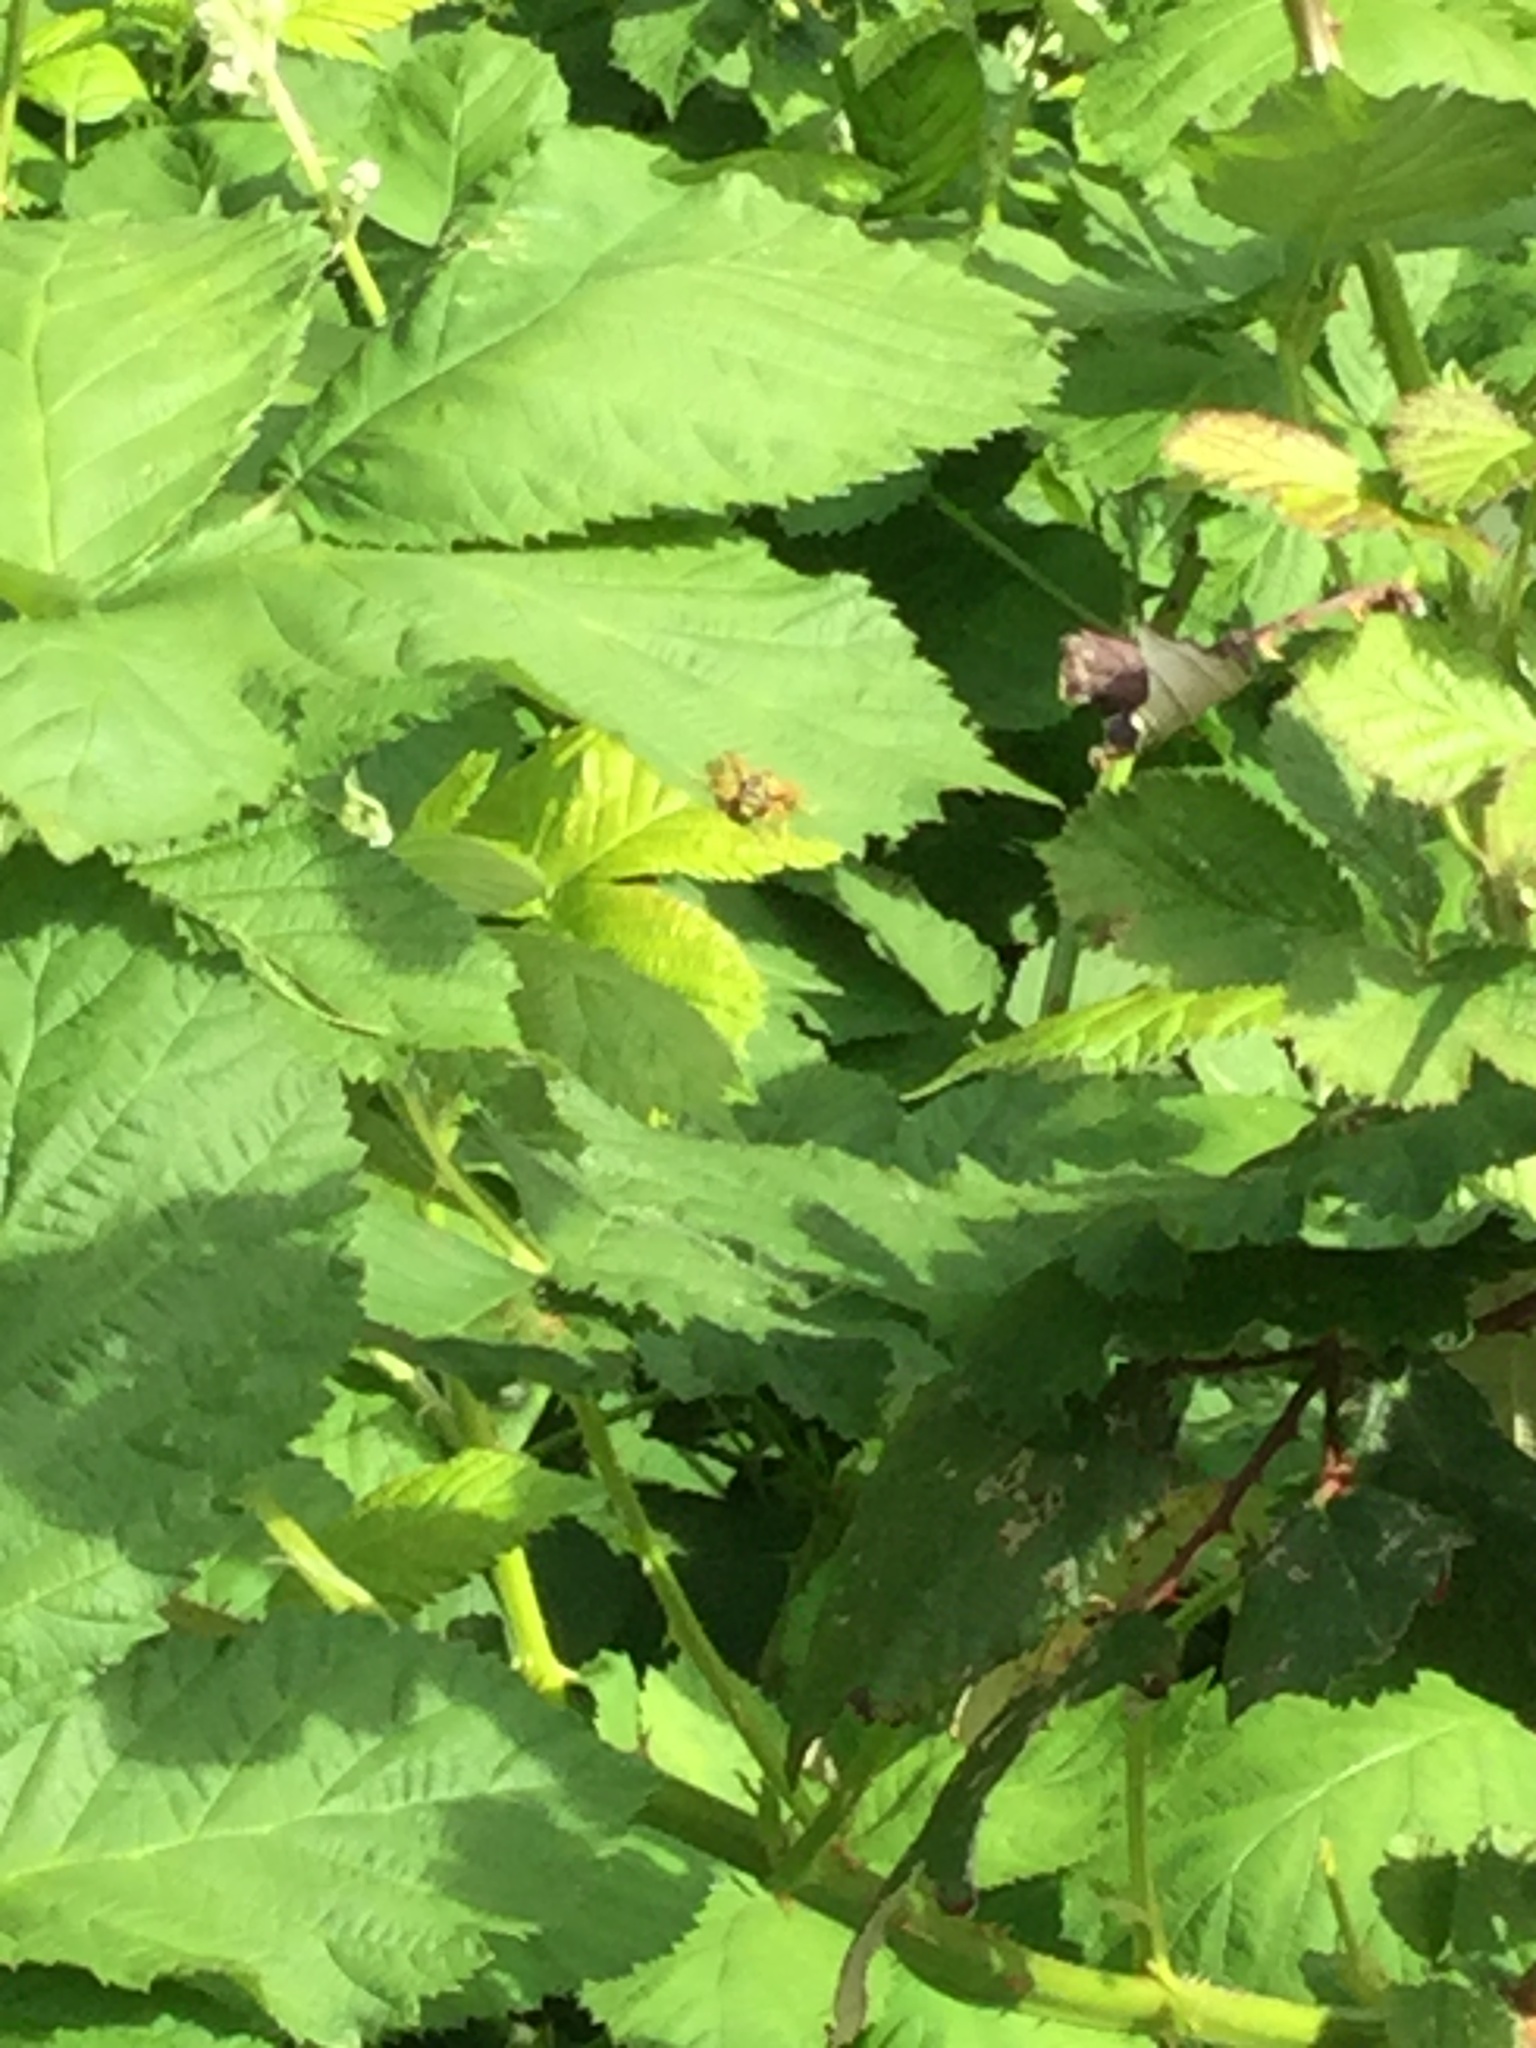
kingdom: Animalia
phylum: Arthropoda
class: Insecta
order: Hymenoptera
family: Eumenidae
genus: Polistes
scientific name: Polistes
